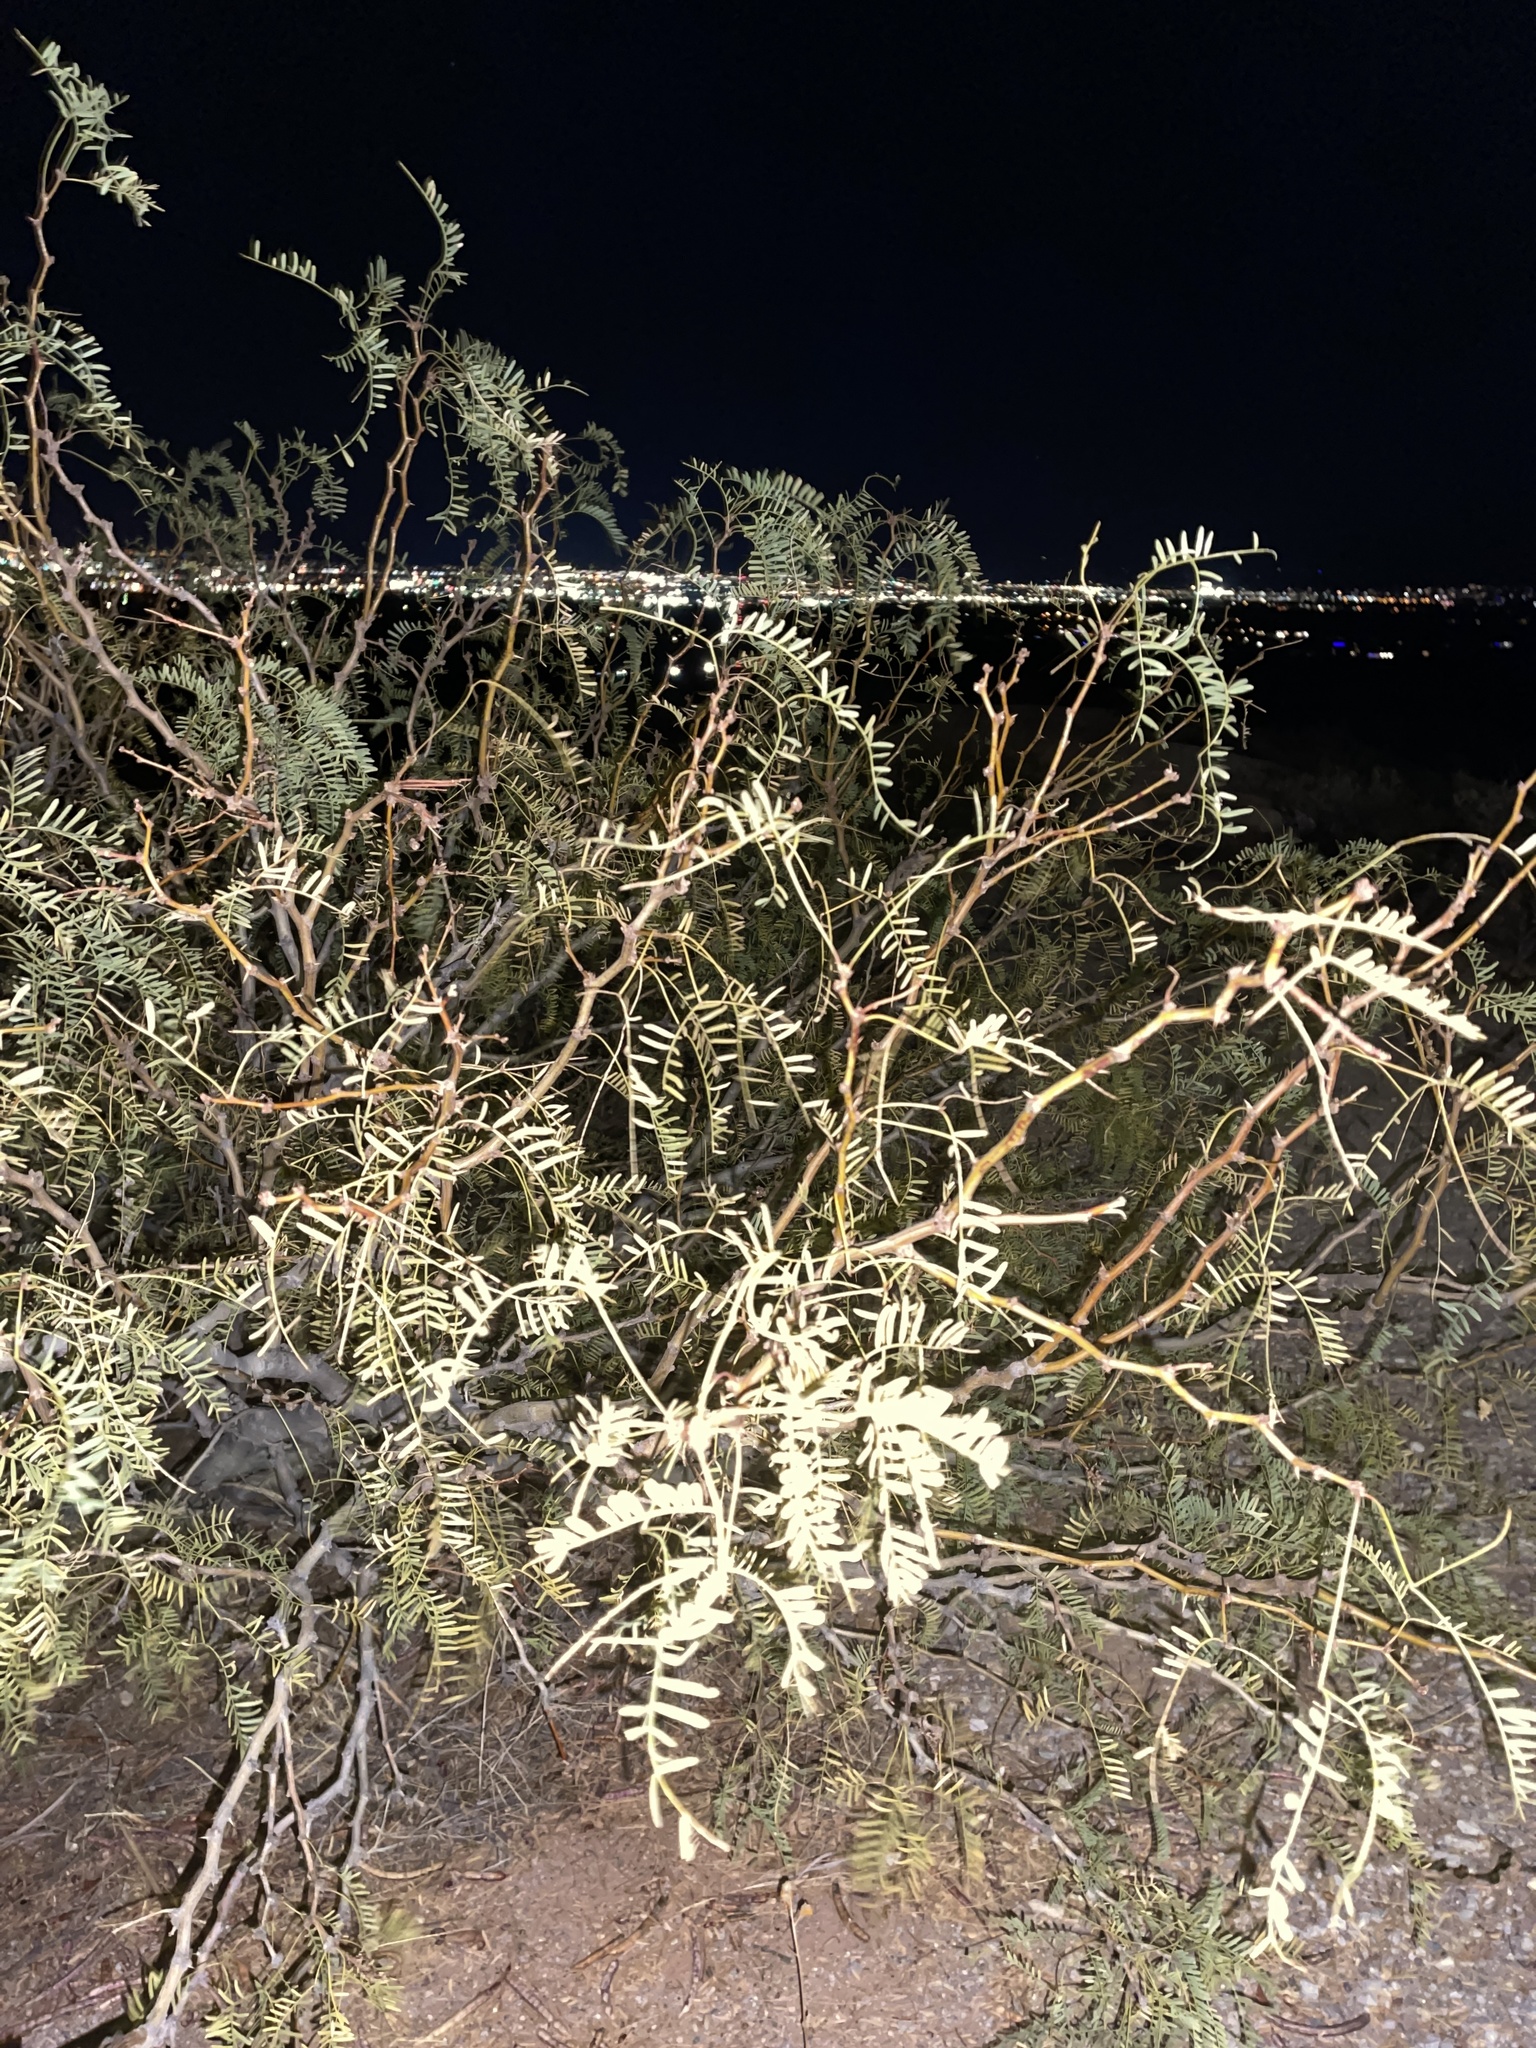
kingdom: Plantae
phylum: Tracheophyta
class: Magnoliopsida
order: Fabales
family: Fabaceae
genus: Prosopis
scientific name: Prosopis glandulosa
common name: Honey mesquite
